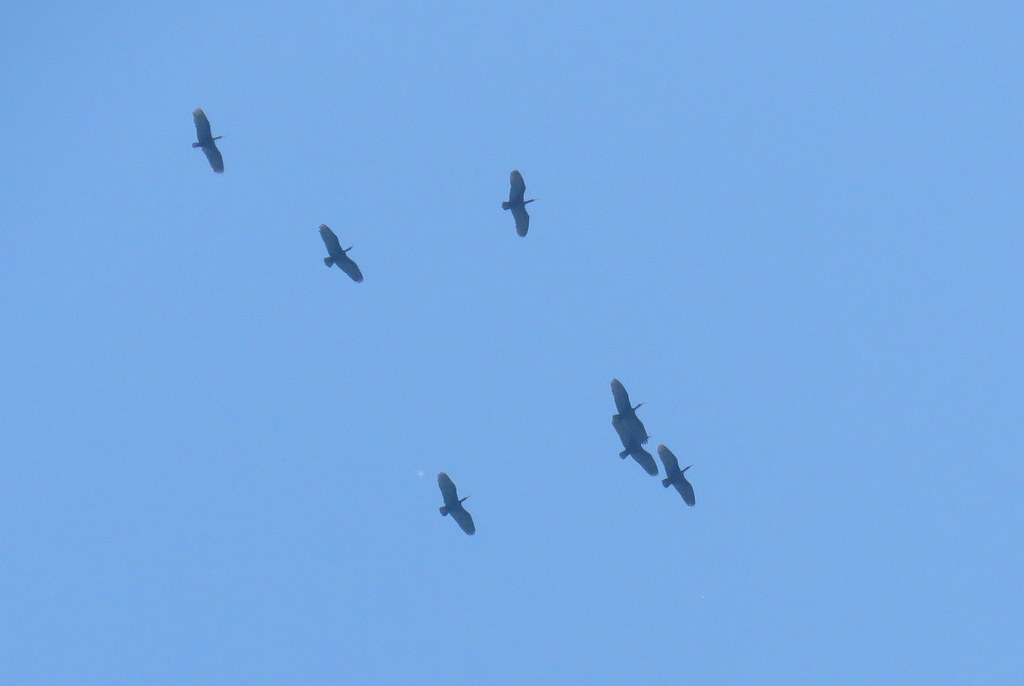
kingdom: Animalia
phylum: Chordata
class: Aves
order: Pelecaniformes
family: Threskiornithidae
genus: Phimosus
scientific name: Phimosus infuscatus
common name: Bare-faced ibis
